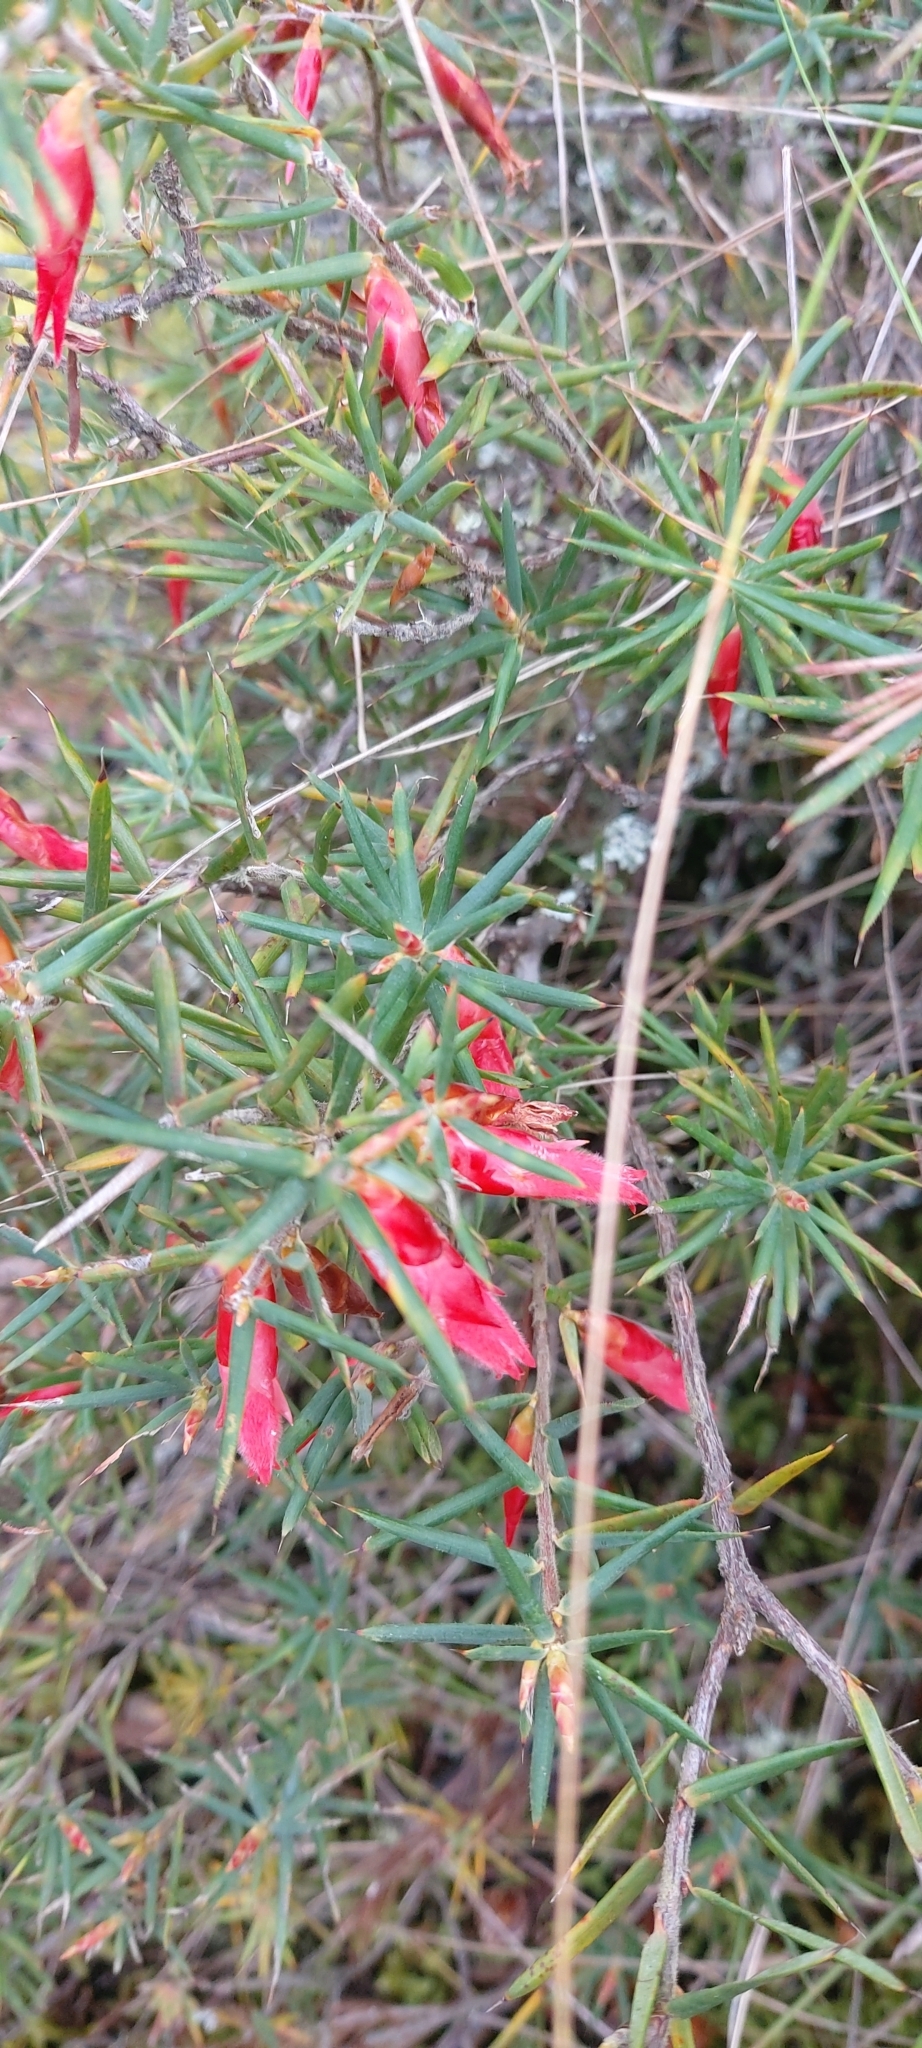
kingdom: Plantae
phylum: Tracheophyta
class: Magnoliopsida
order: Ericales
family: Ericaceae
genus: Stenanthera
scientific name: Stenanthera conostephioides
